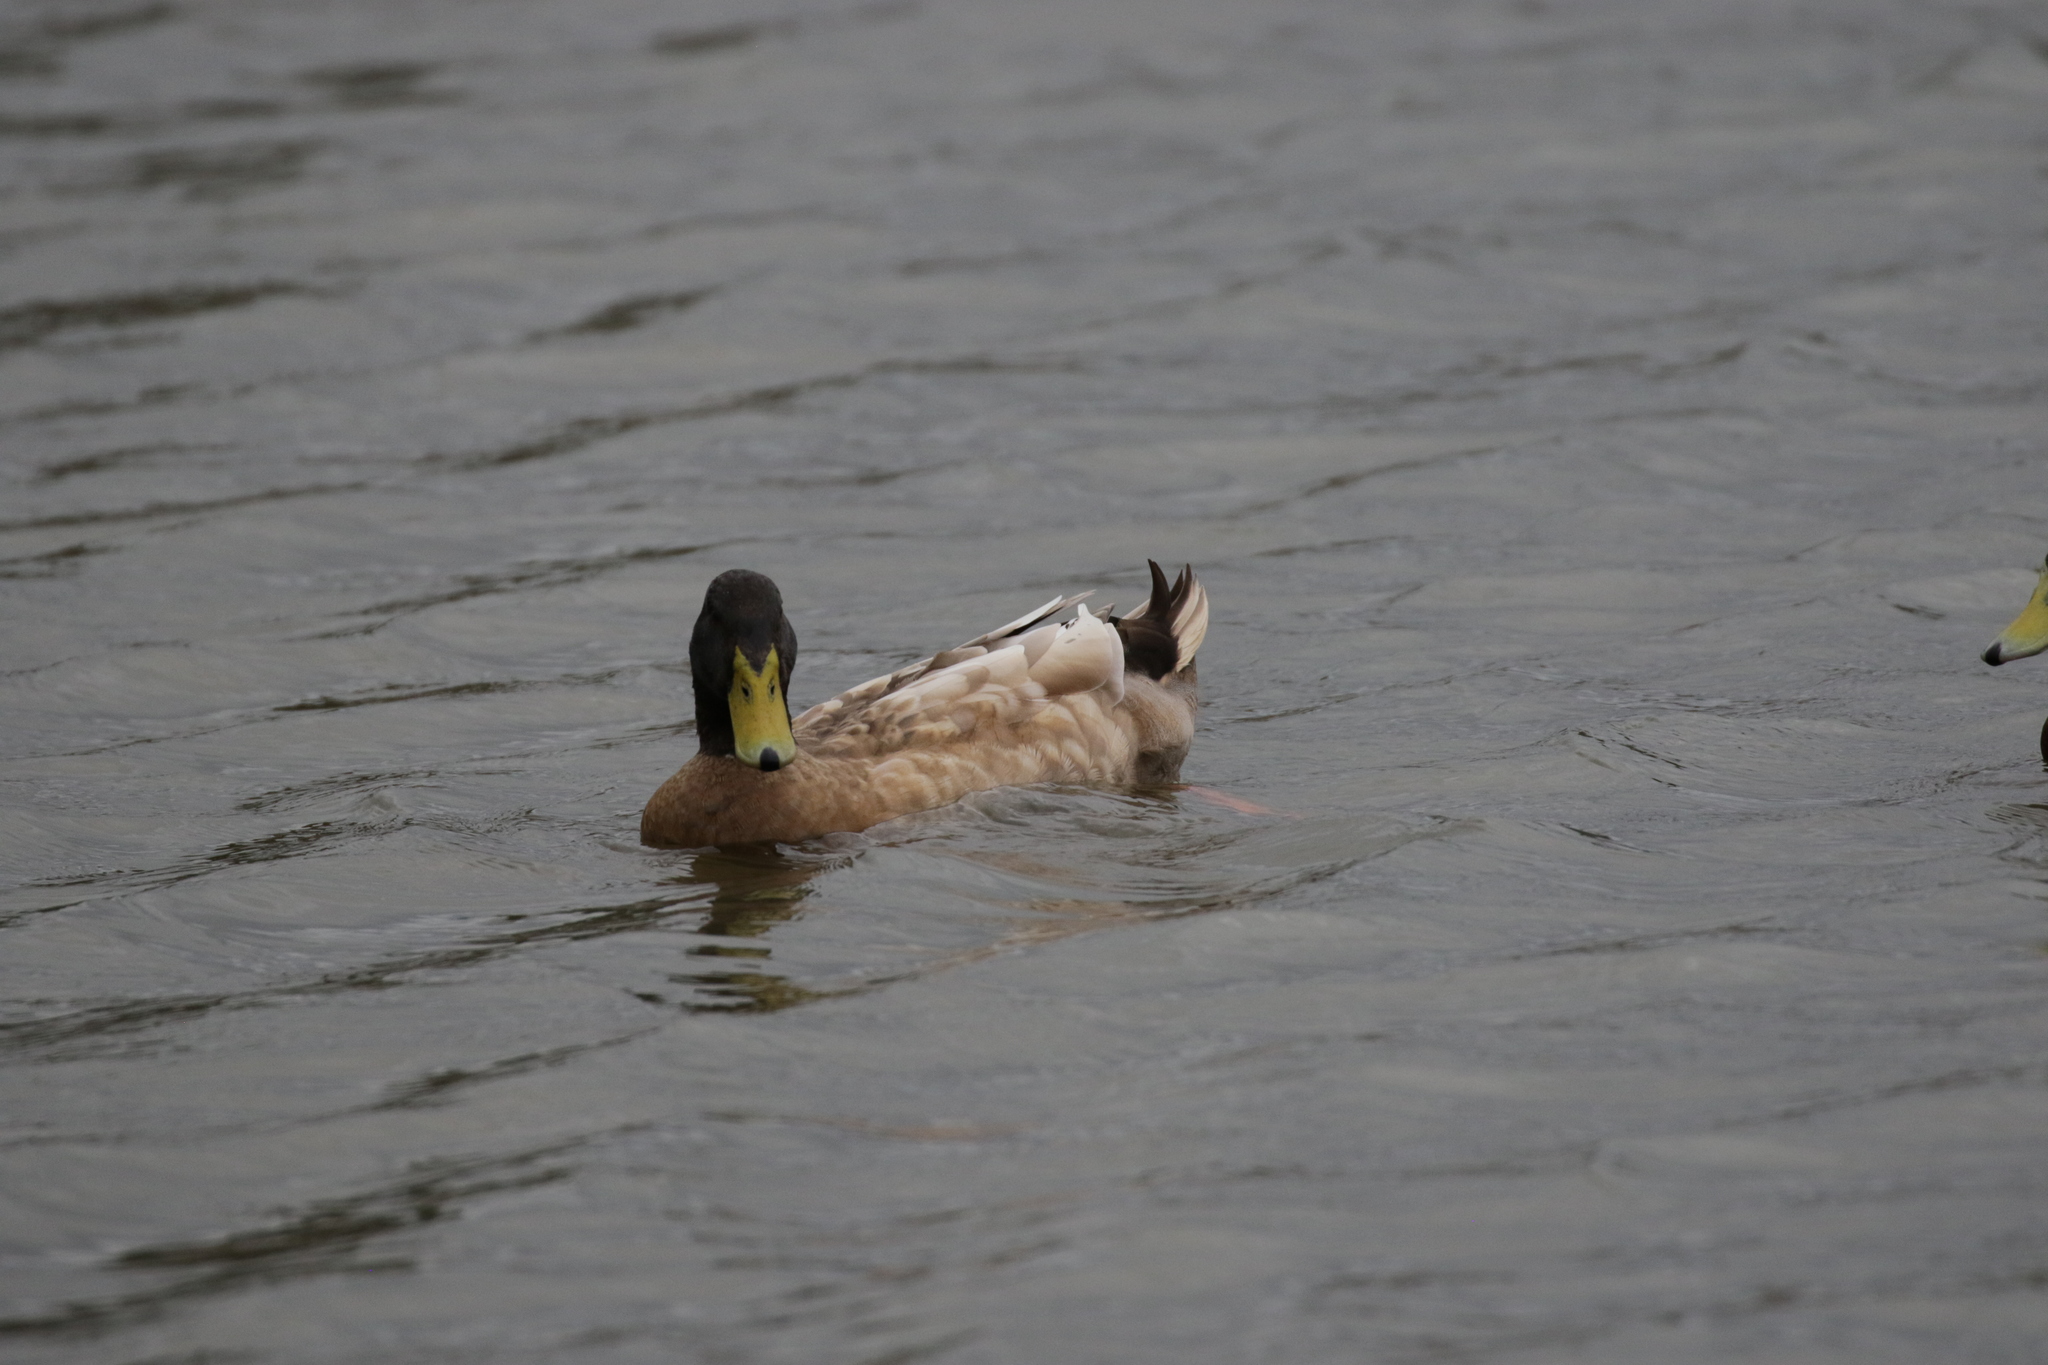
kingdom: Animalia
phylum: Chordata
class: Aves
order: Anseriformes
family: Anatidae
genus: Anas
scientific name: Anas platyrhynchos
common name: Mallard
